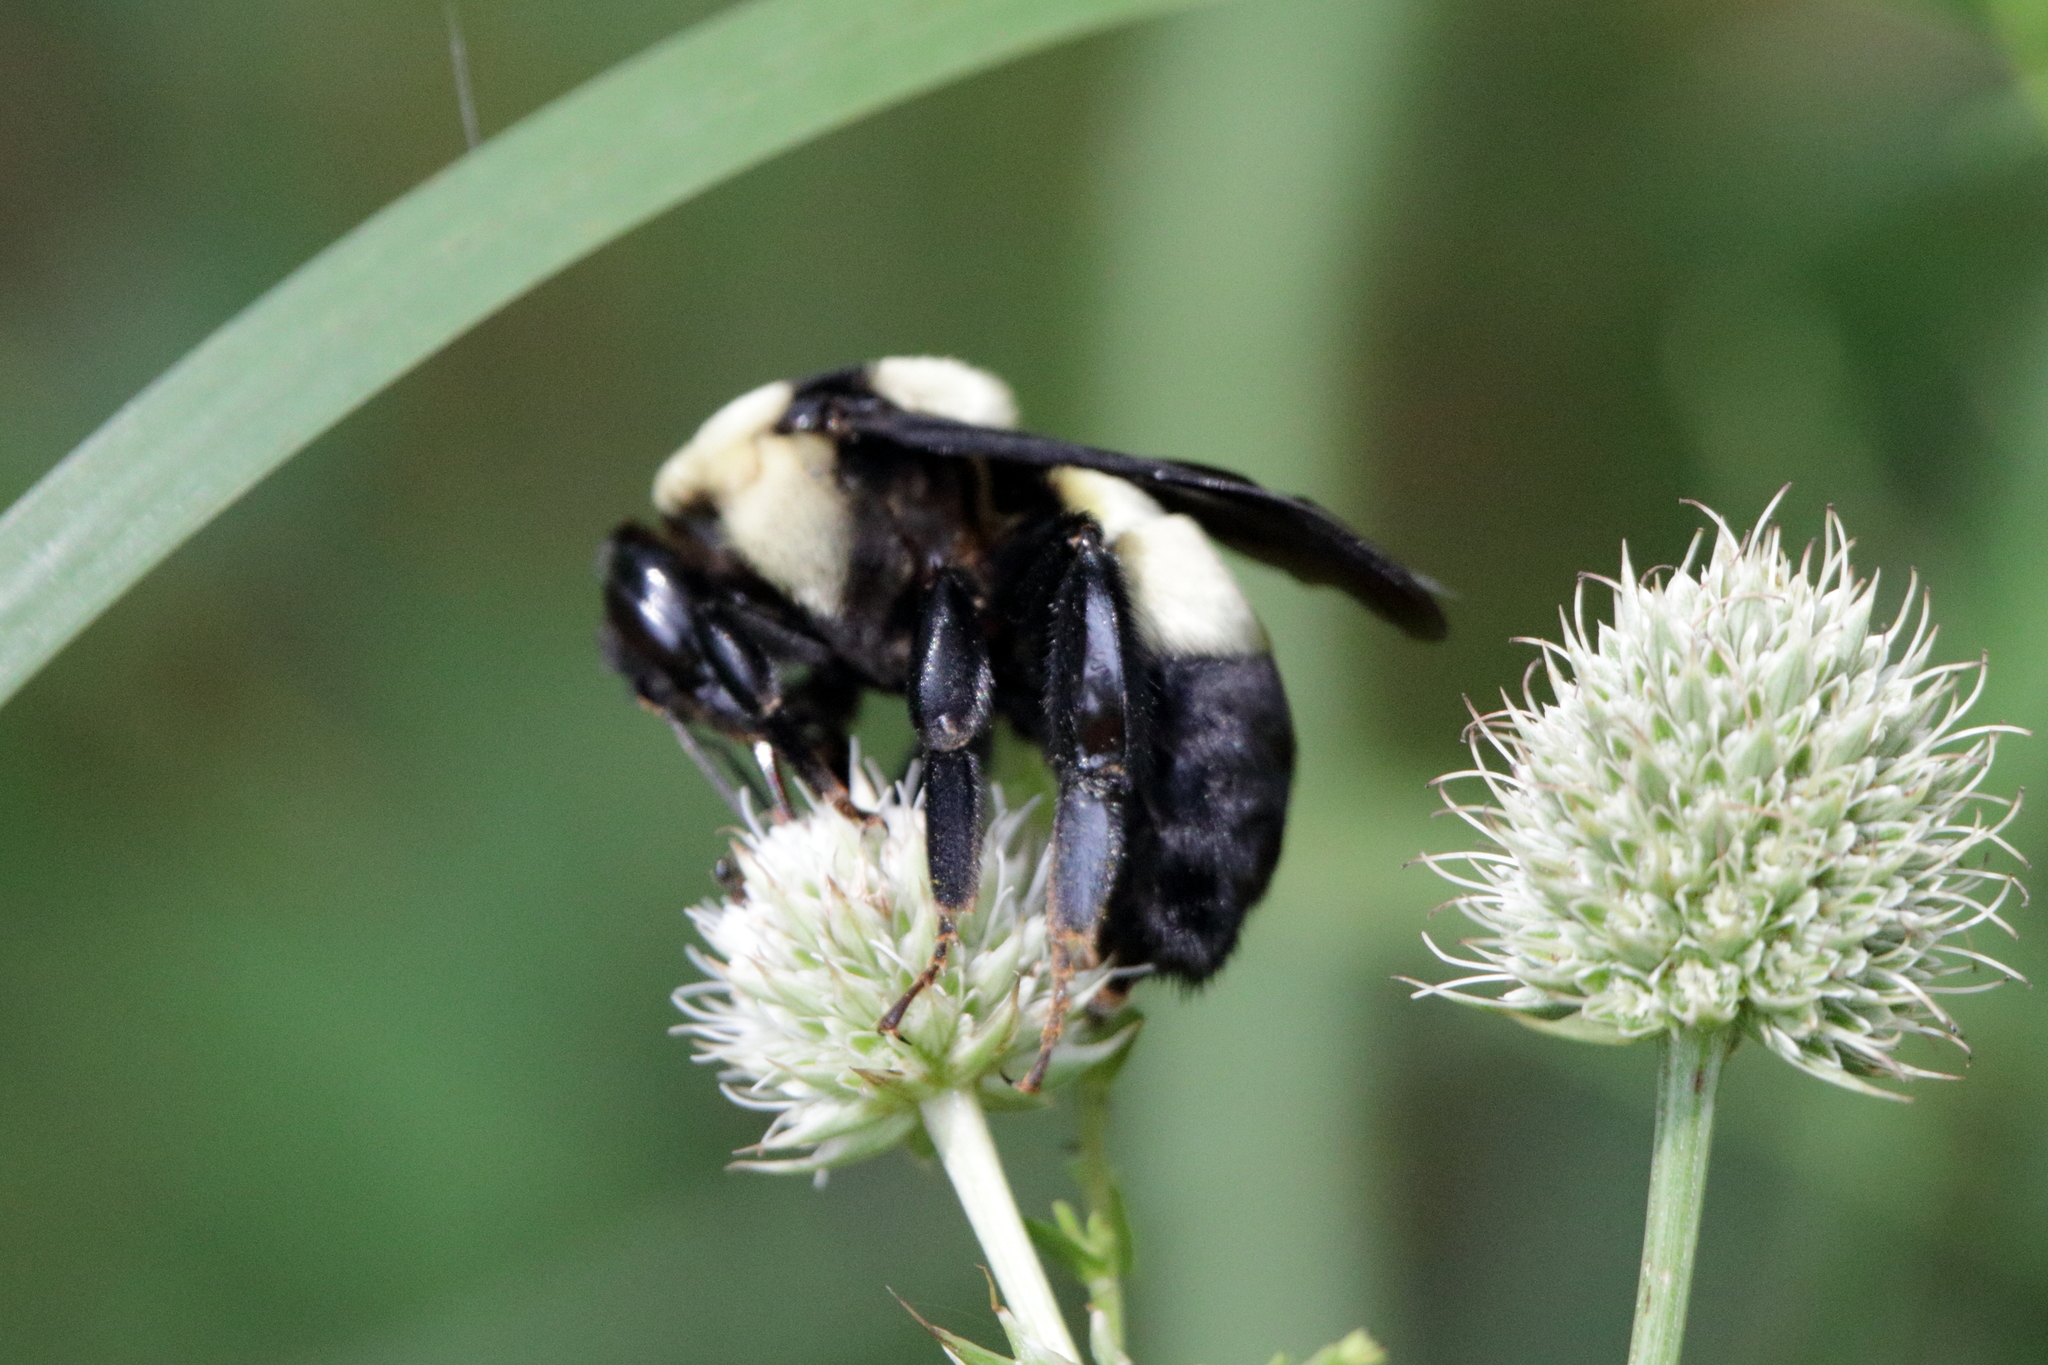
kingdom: Animalia
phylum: Arthropoda
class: Insecta
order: Hymenoptera
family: Apidae
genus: Bombus
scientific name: Bombus fraternus
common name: Southern plains bumble bee
